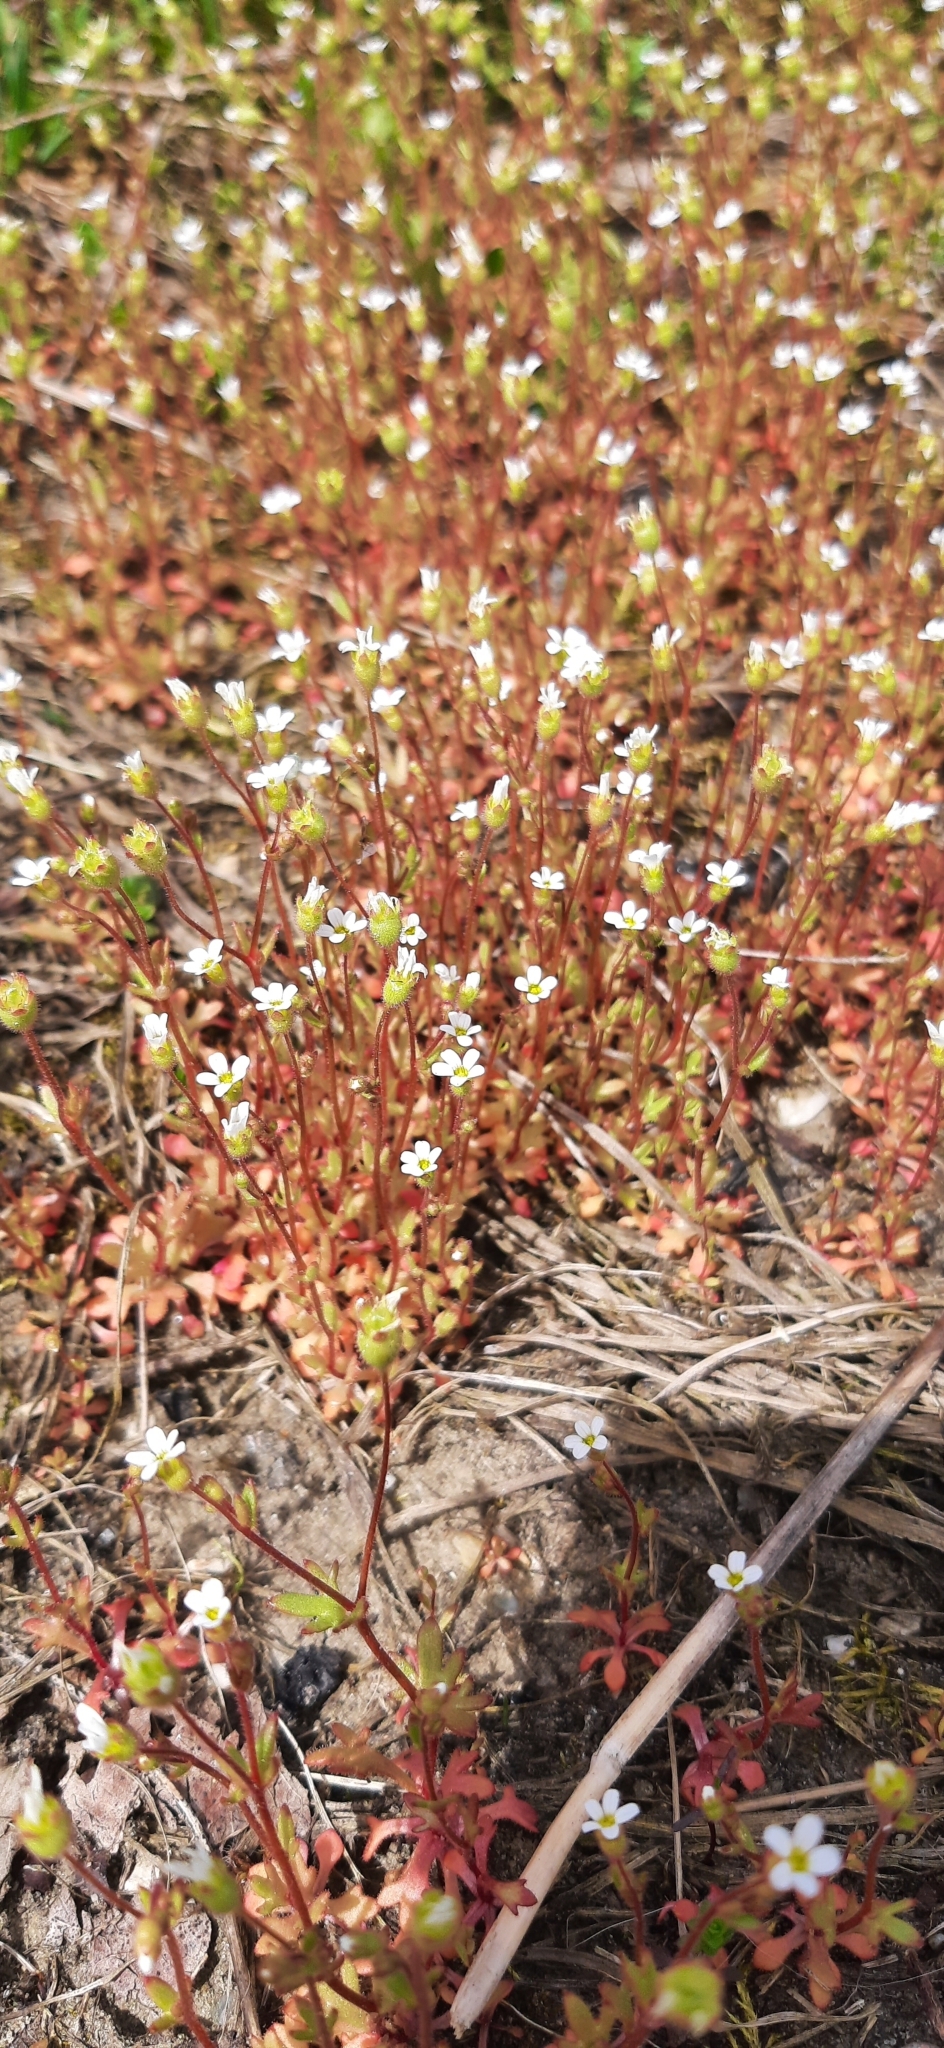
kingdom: Plantae
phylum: Tracheophyta
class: Magnoliopsida
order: Saxifragales
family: Saxifragaceae
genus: Saxifraga
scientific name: Saxifraga tridactylites
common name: Rue-leaved saxifrage
